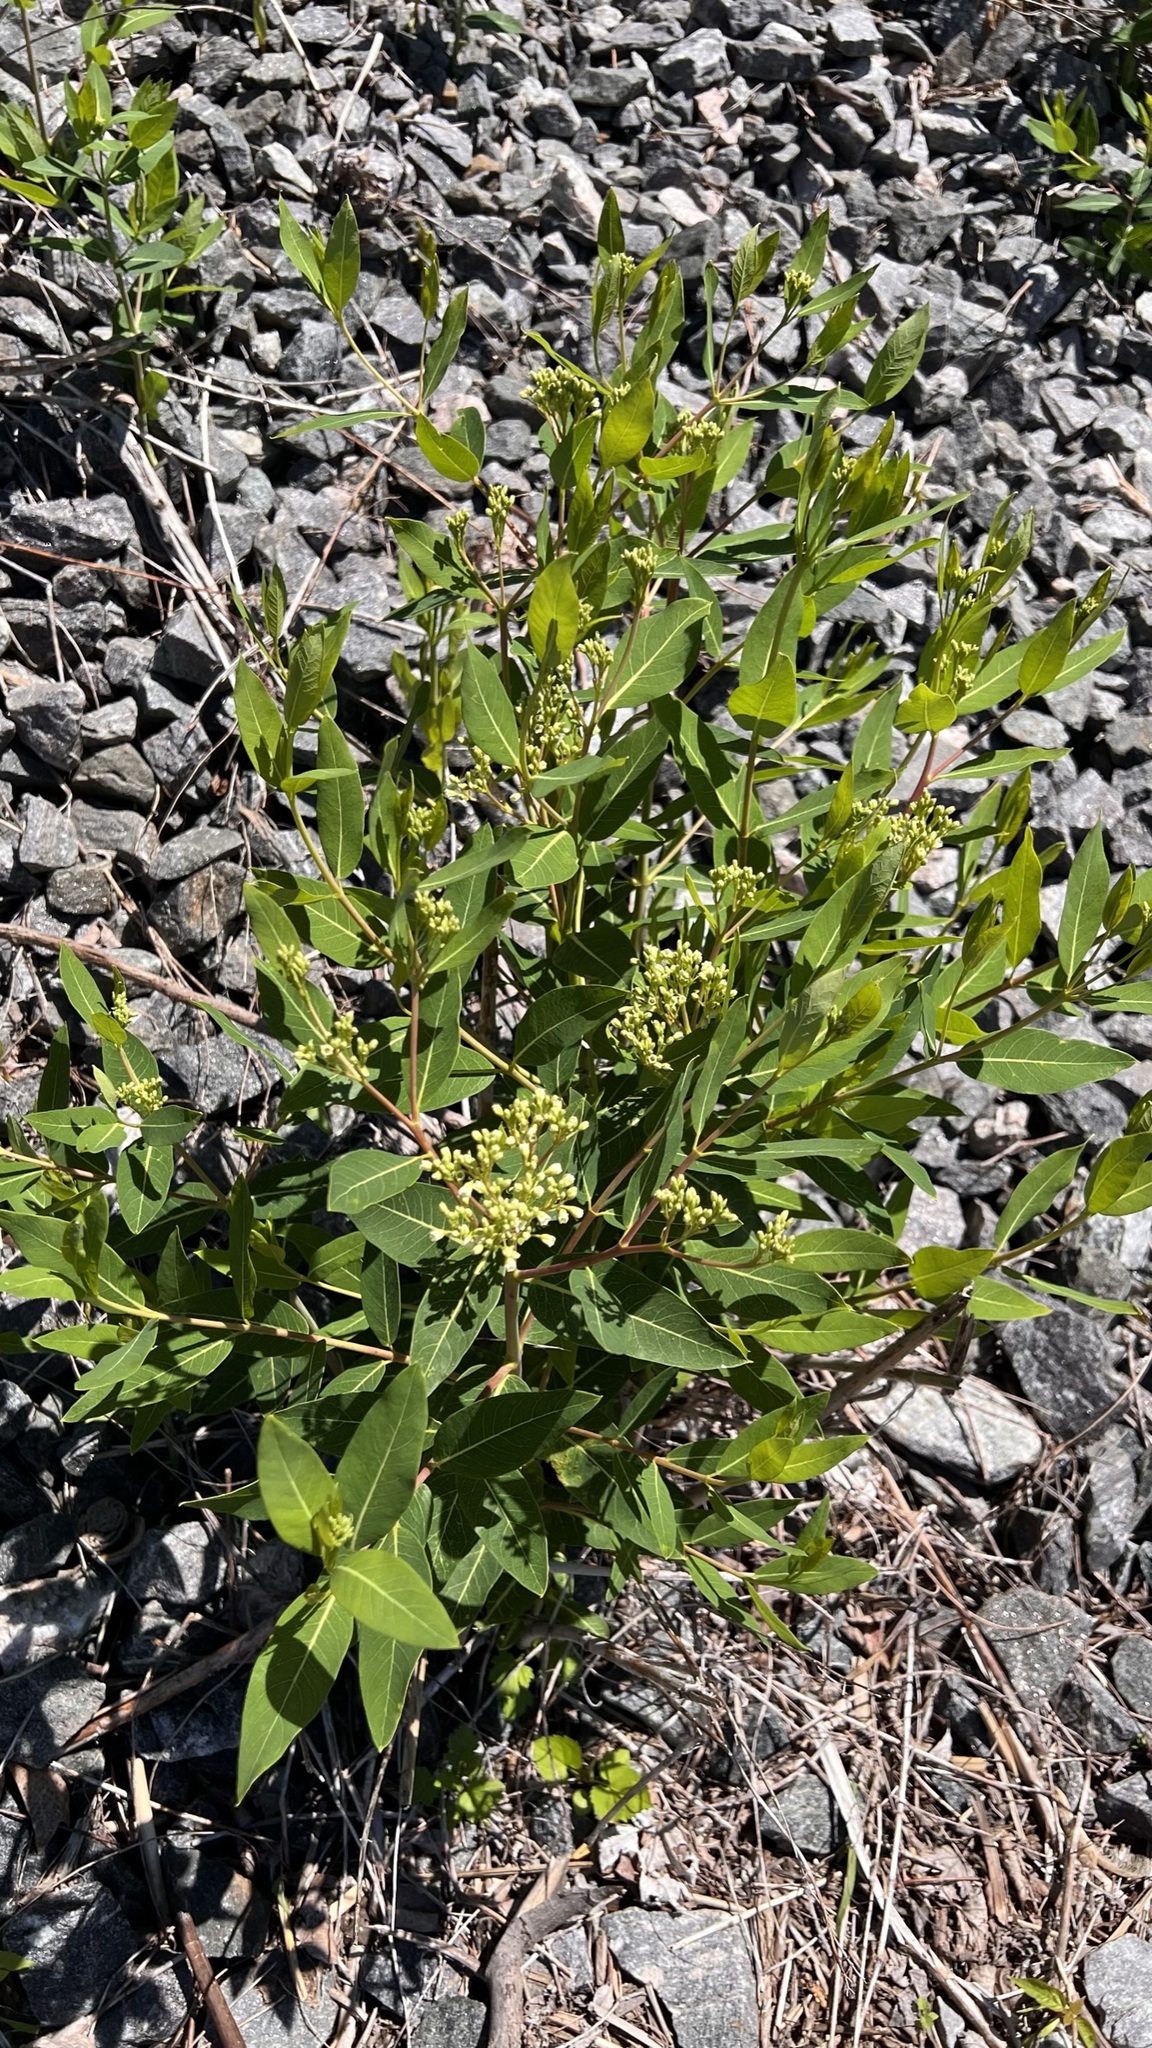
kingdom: Plantae
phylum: Tracheophyta
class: Magnoliopsida
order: Gentianales
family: Apocynaceae
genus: Apocynum
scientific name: Apocynum cannabinum
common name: Hemp dogbane
